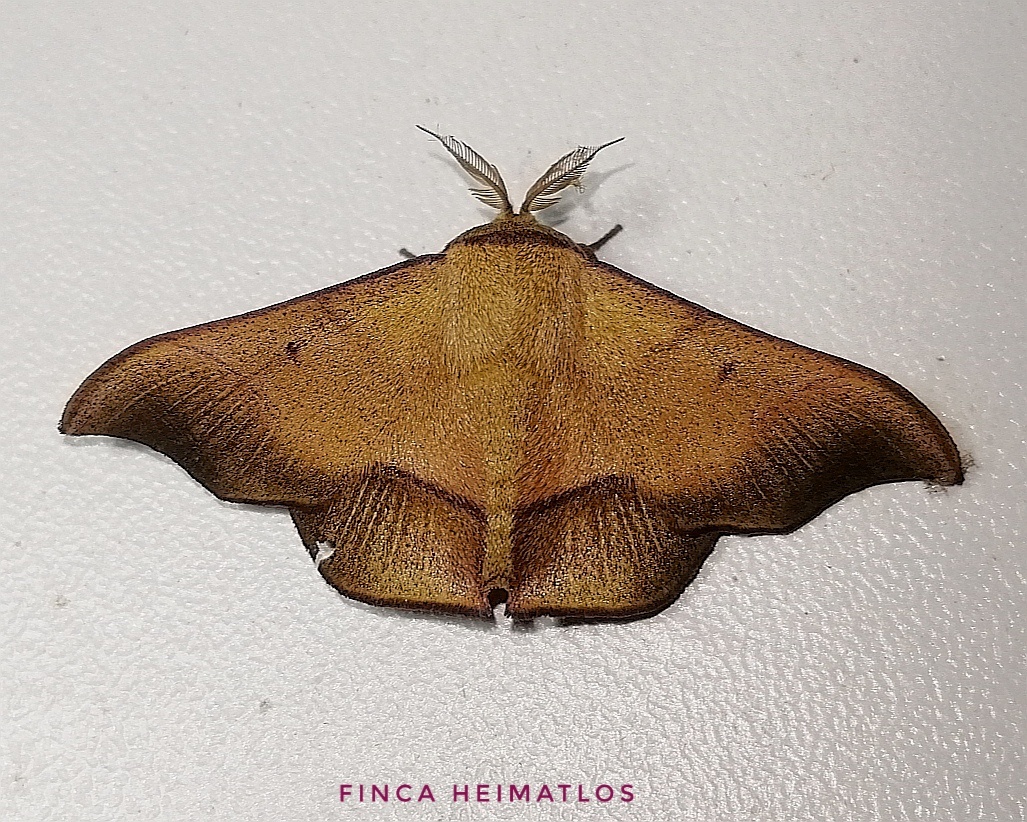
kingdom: Animalia
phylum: Arthropoda
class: Insecta
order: Lepidoptera
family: Mimallonidae
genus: Alheita
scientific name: Alheita
